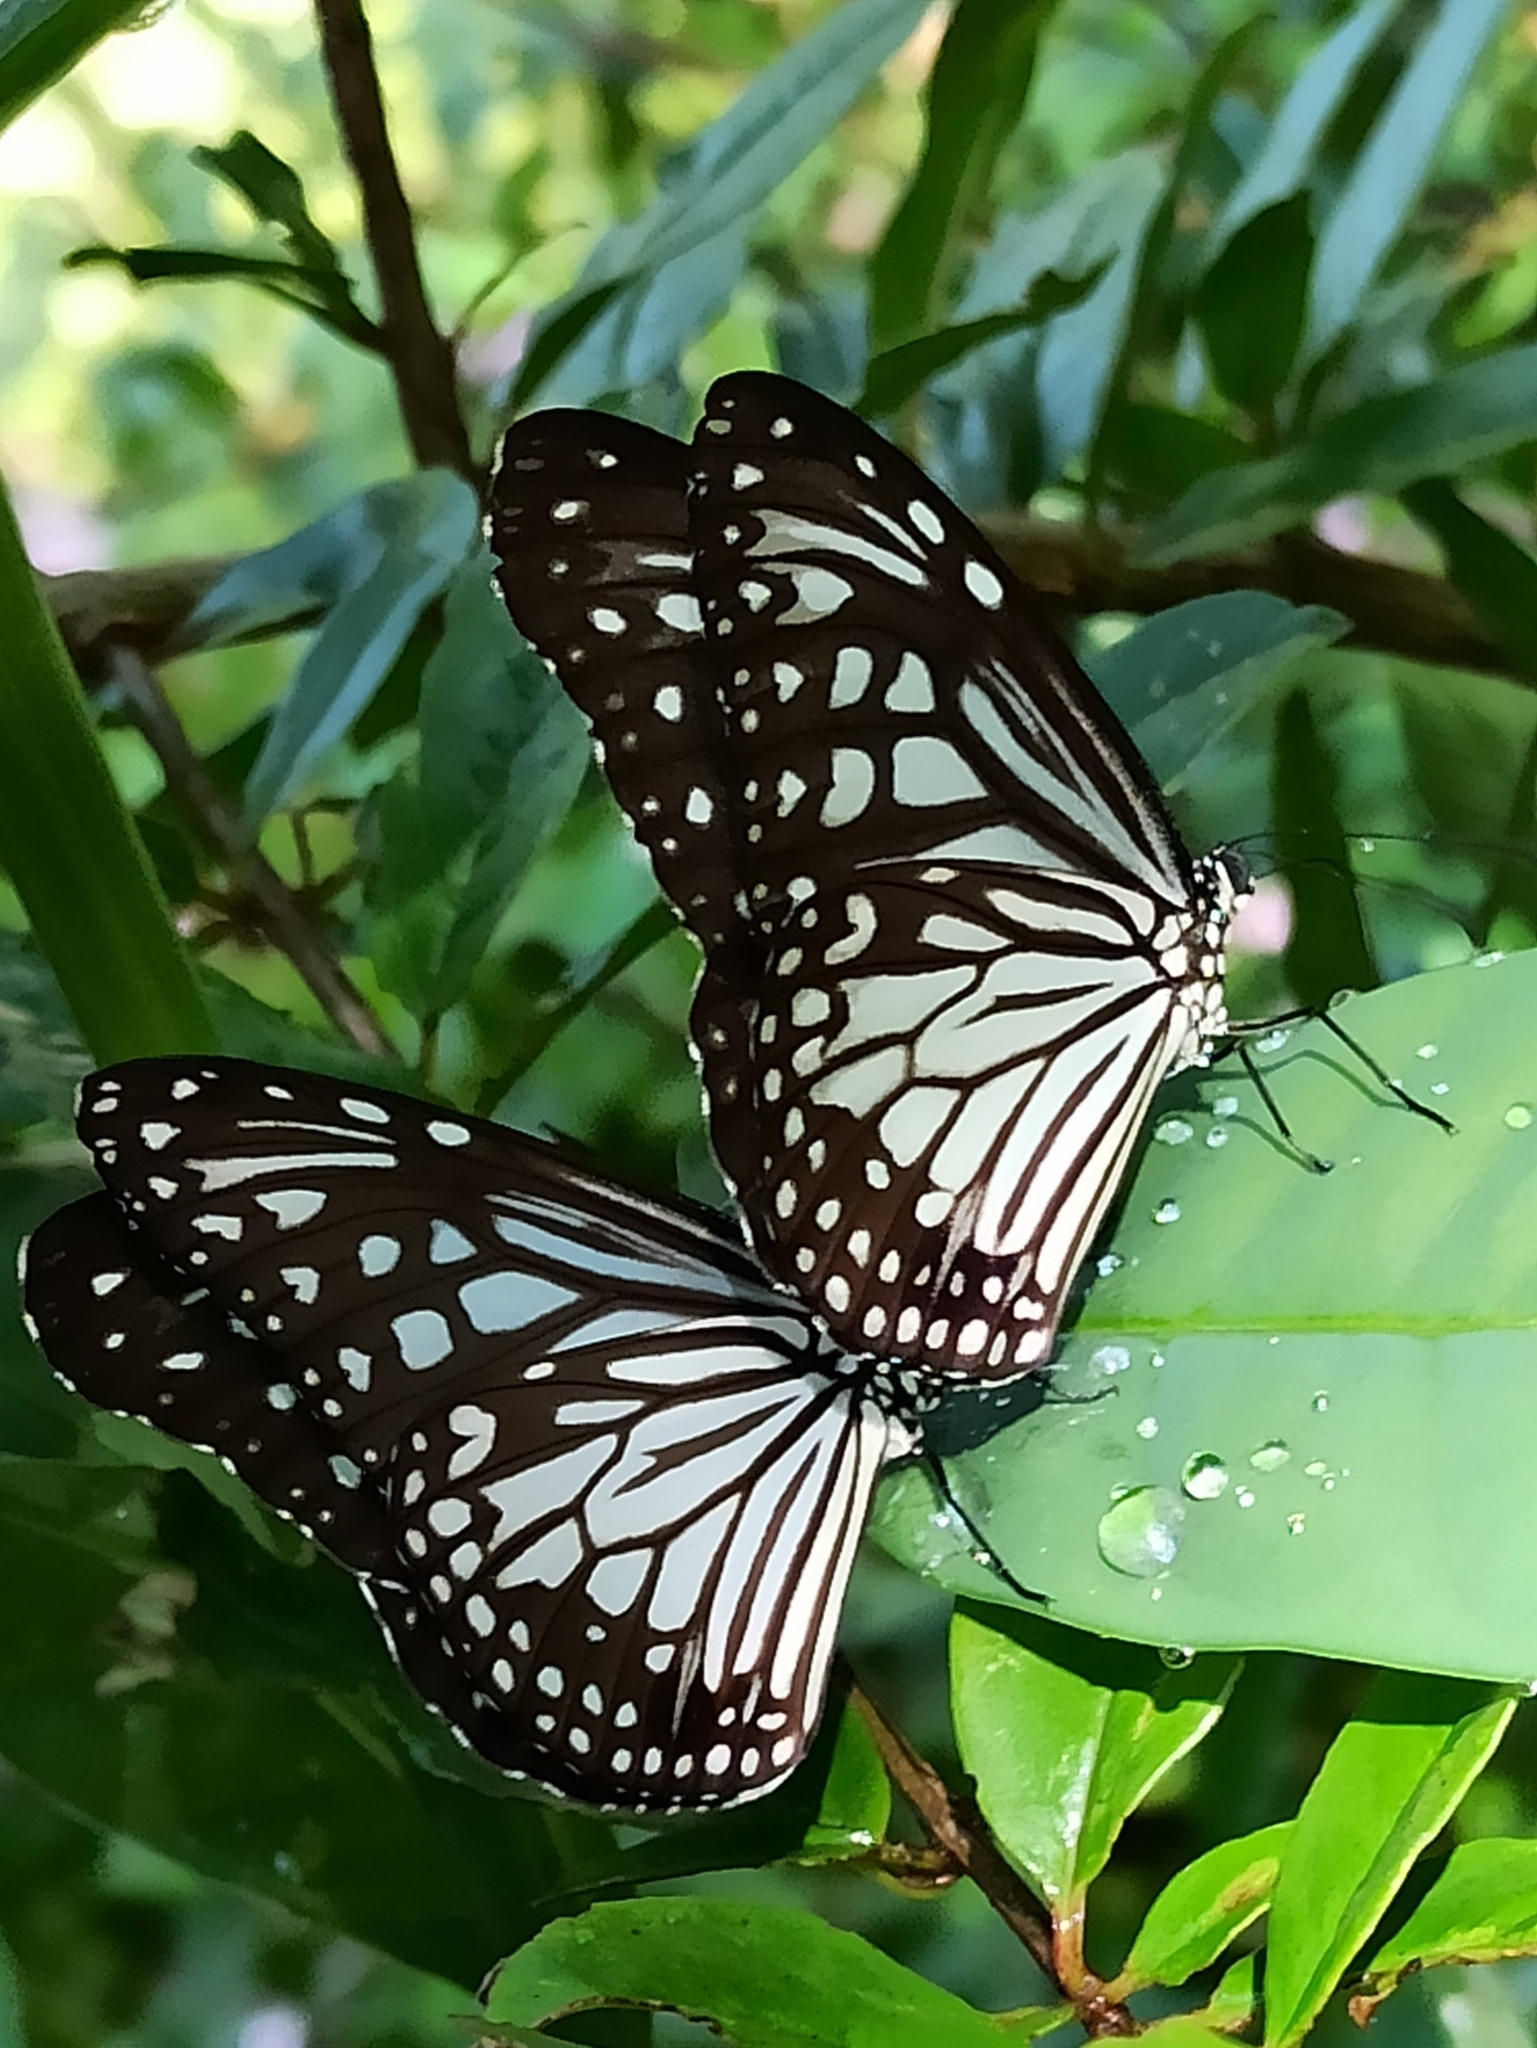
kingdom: Animalia
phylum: Arthropoda
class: Insecta
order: Lepidoptera
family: Nymphalidae
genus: Parantica
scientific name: Parantica aglea
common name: Glassy tiger
